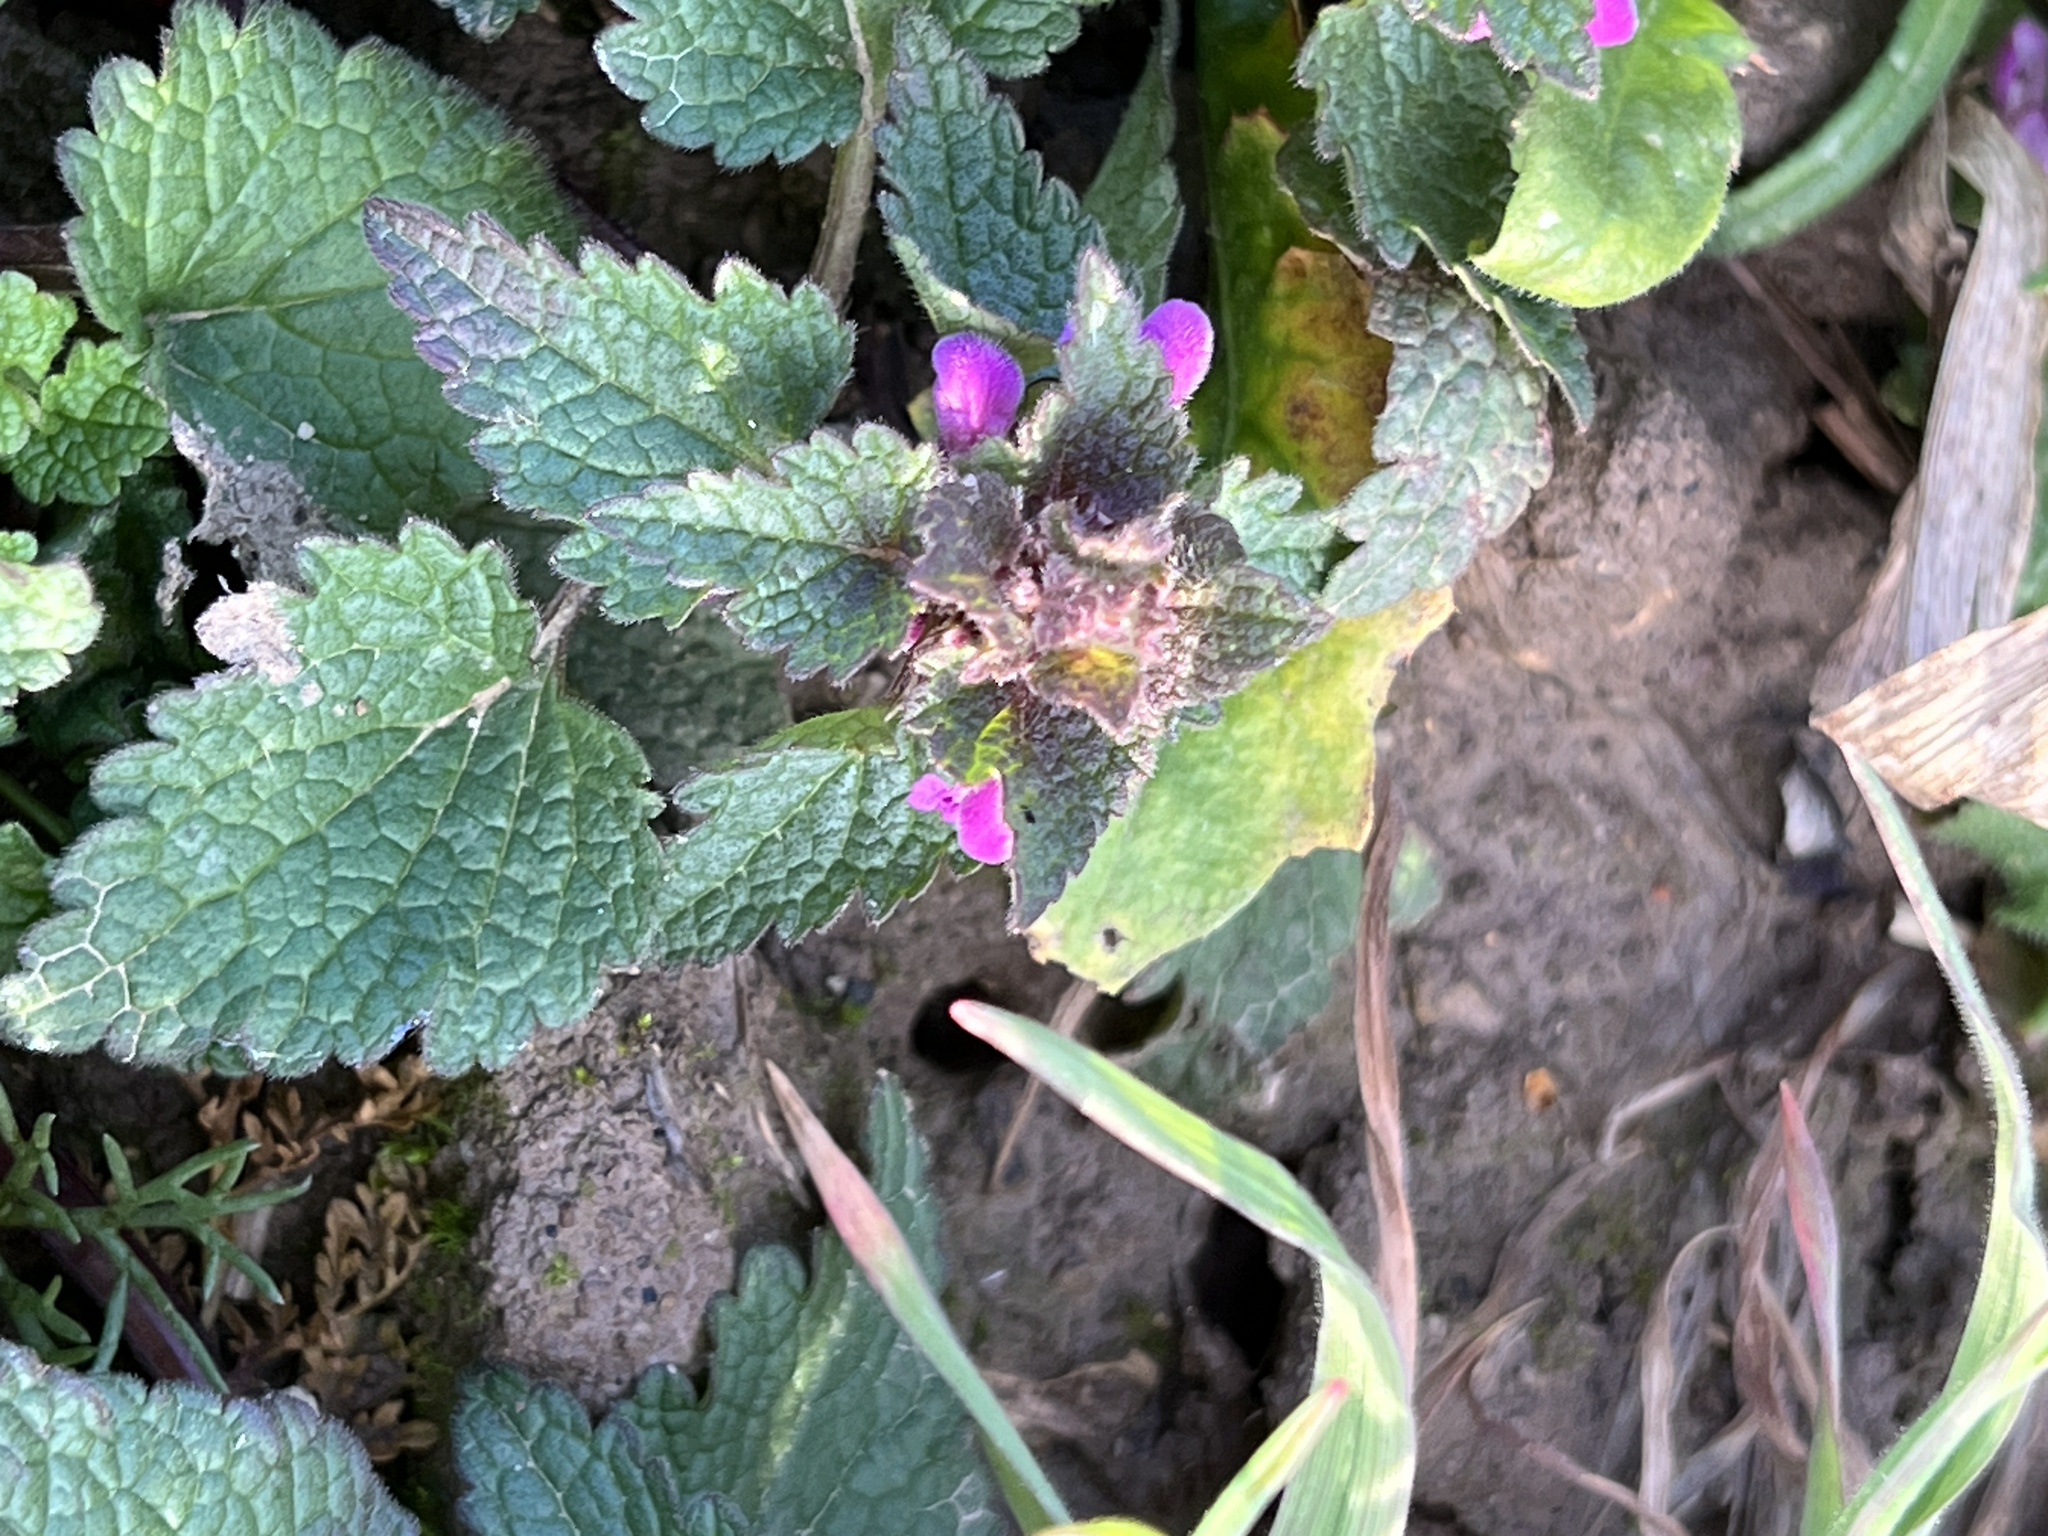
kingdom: Plantae
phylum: Tracheophyta
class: Magnoliopsida
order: Lamiales
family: Lamiaceae
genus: Lamium
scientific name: Lamium purpureum
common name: Red dead-nettle
